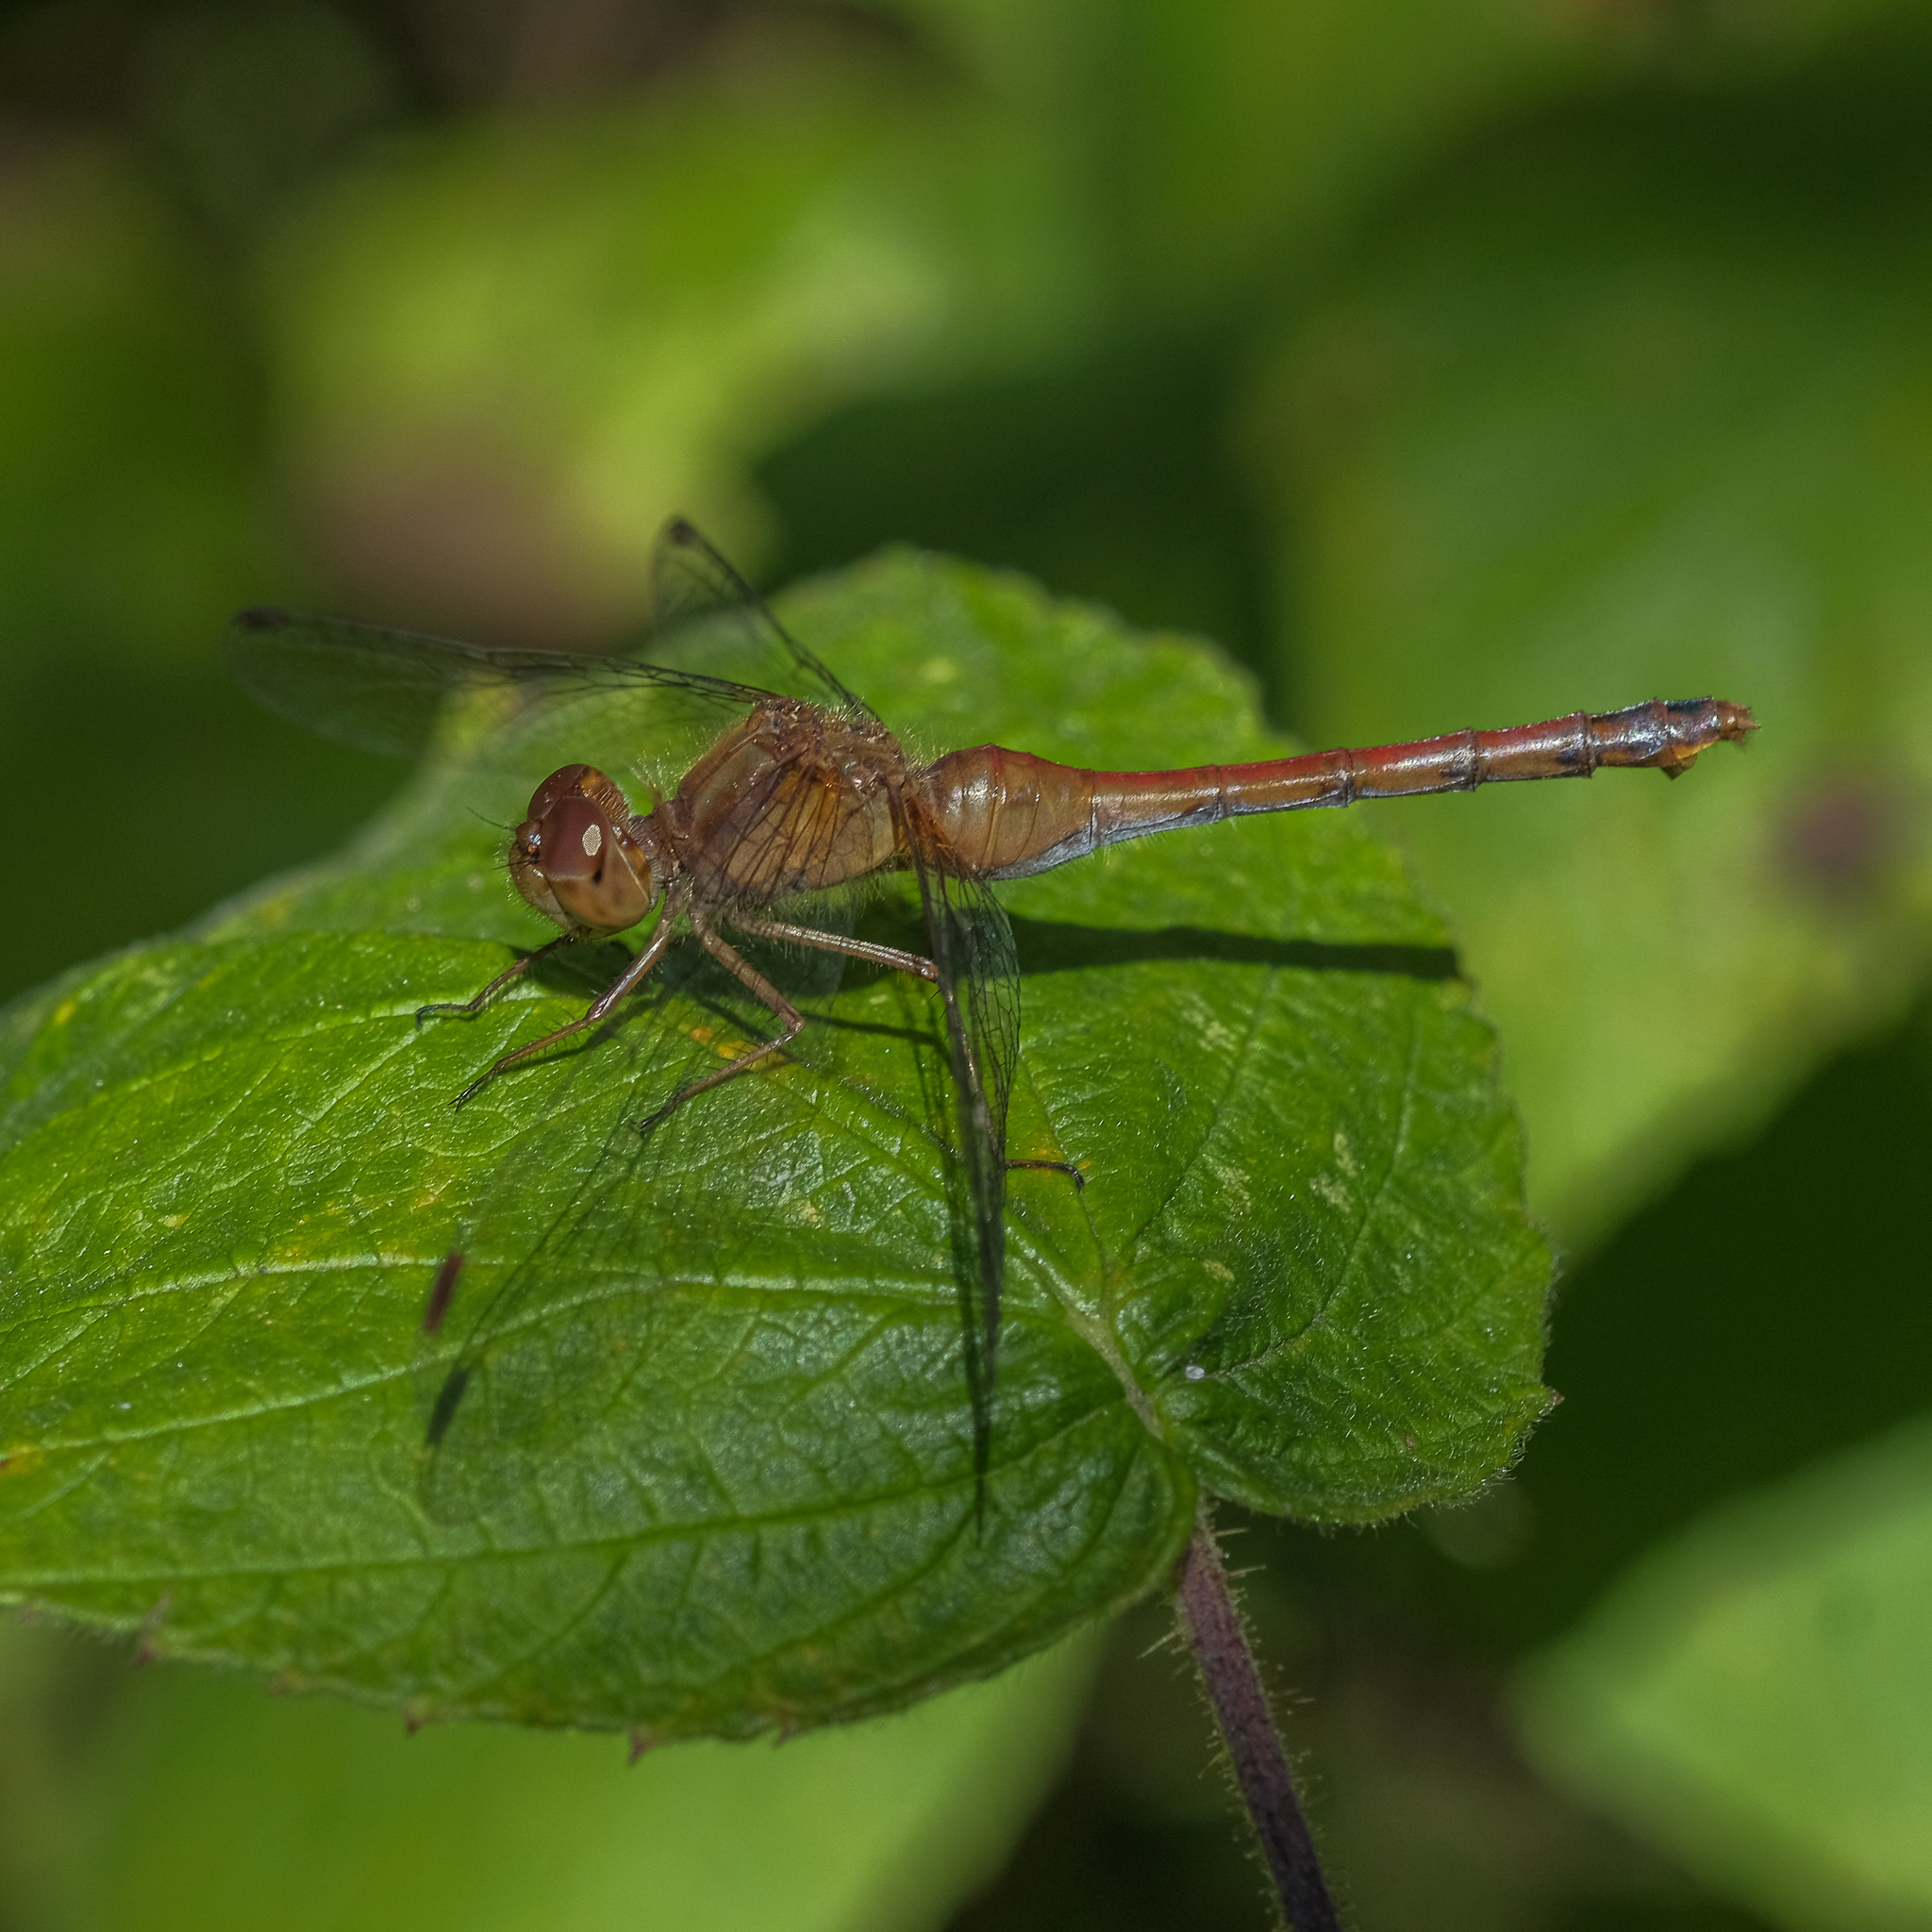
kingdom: Animalia
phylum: Arthropoda
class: Insecta
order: Odonata
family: Libellulidae
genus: Sympetrum
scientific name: Sympetrum vicinum
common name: Autumn meadowhawk
